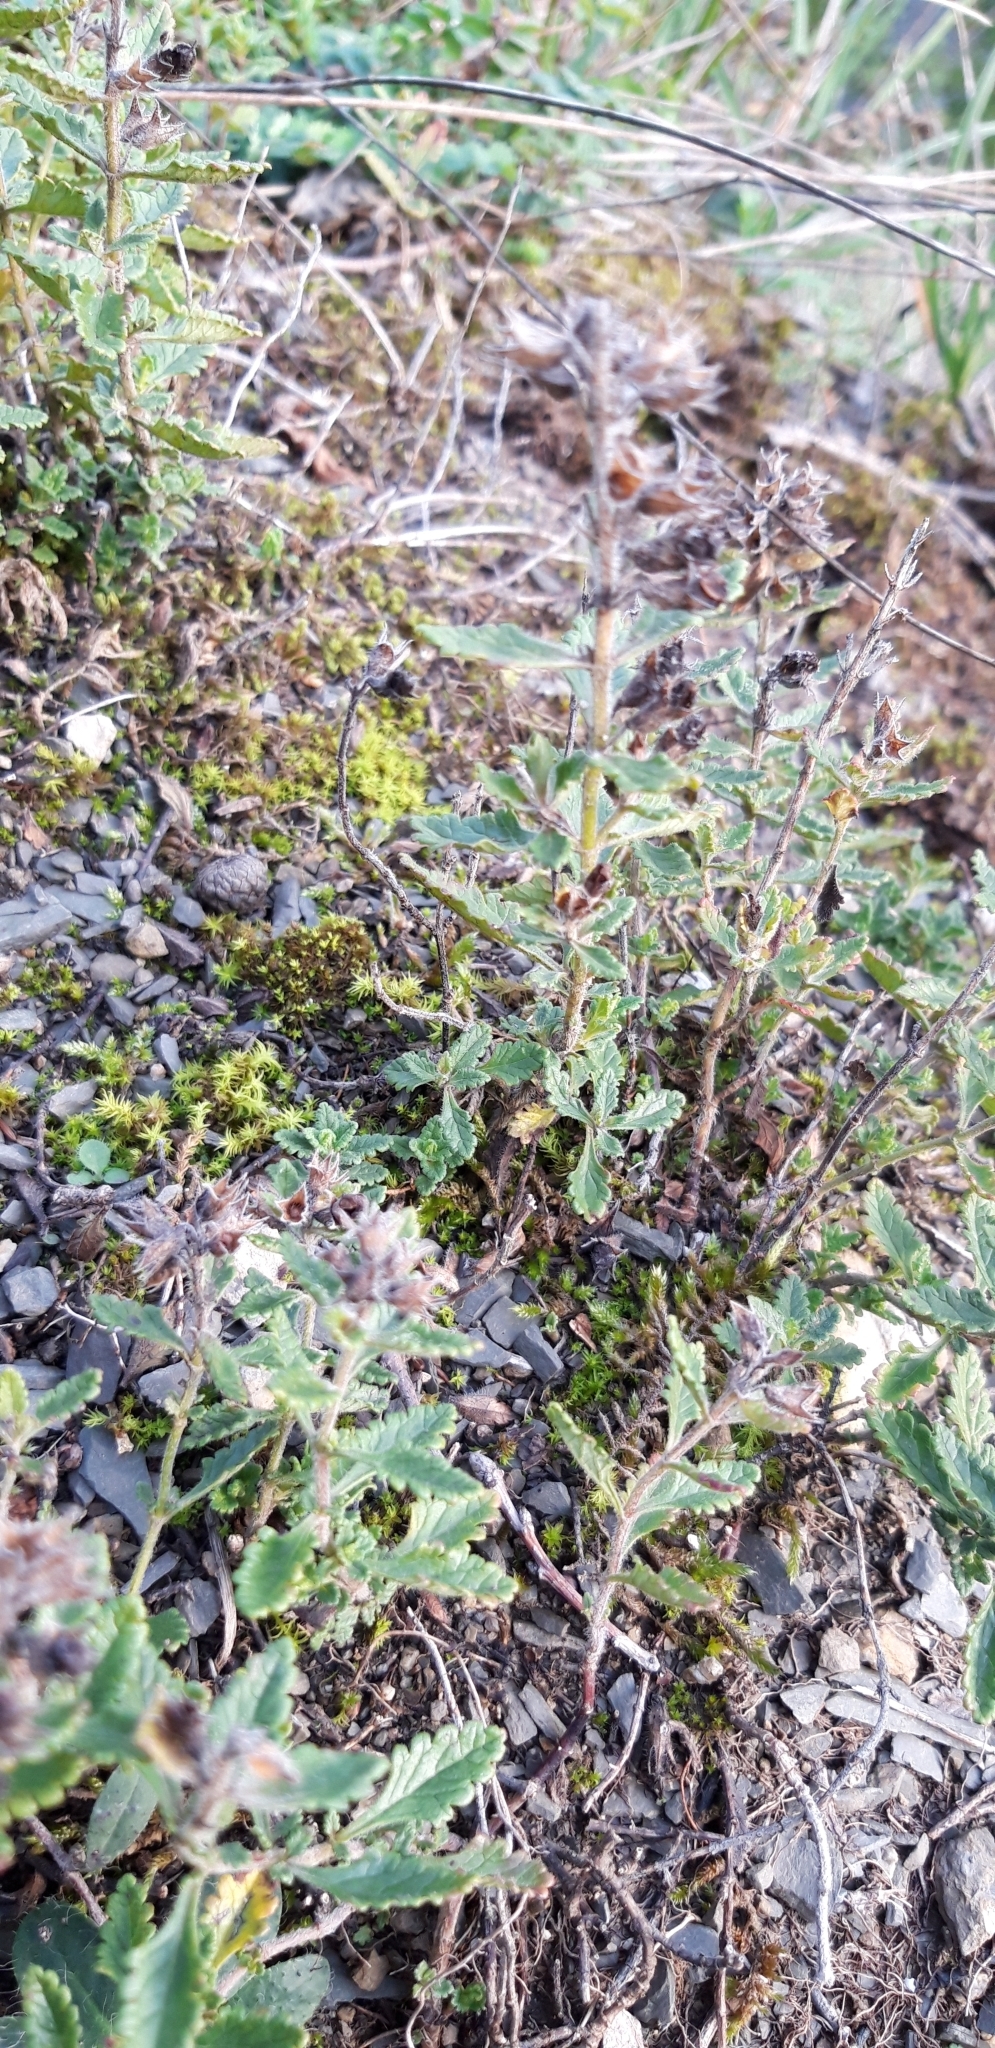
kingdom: Plantae
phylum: Tracheophyta
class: Magnoliopsida
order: Lamiales
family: Lamiaceae
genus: Teucrium
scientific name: Teucrium chamaedrys
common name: Wall germander
